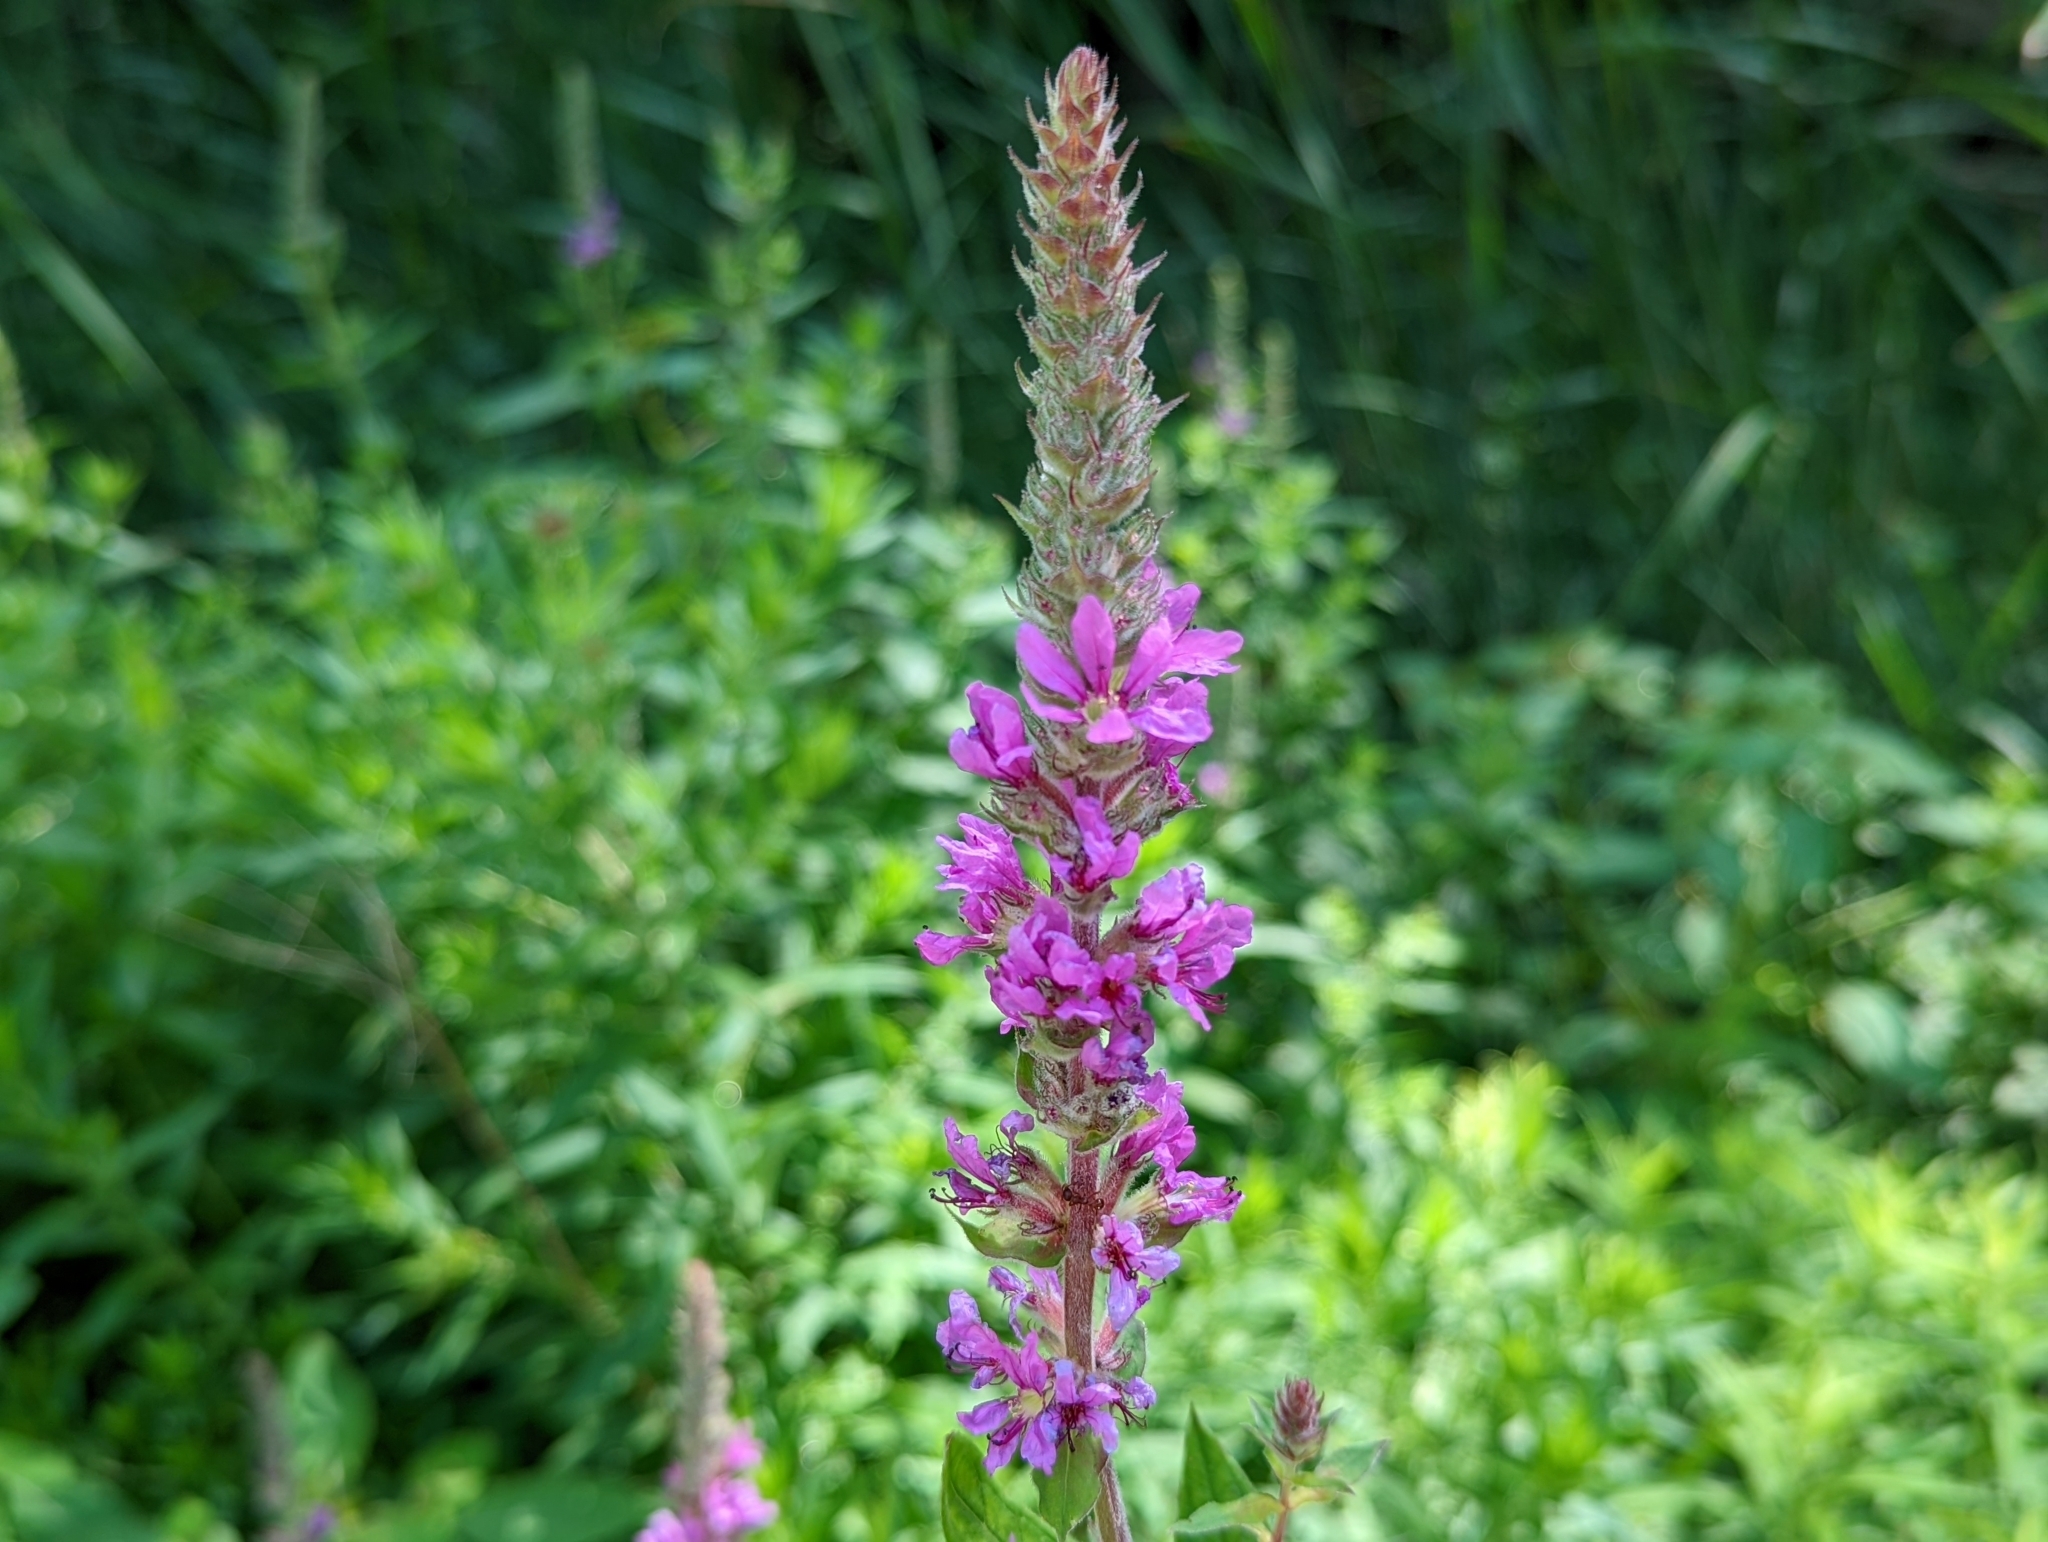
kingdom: Plantae
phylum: Tracheophyta
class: Magnoliopsida
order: Myrtales
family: Lythraceae
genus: Lythrum
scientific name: Lythrum salicaria
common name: Purple loosestrife
